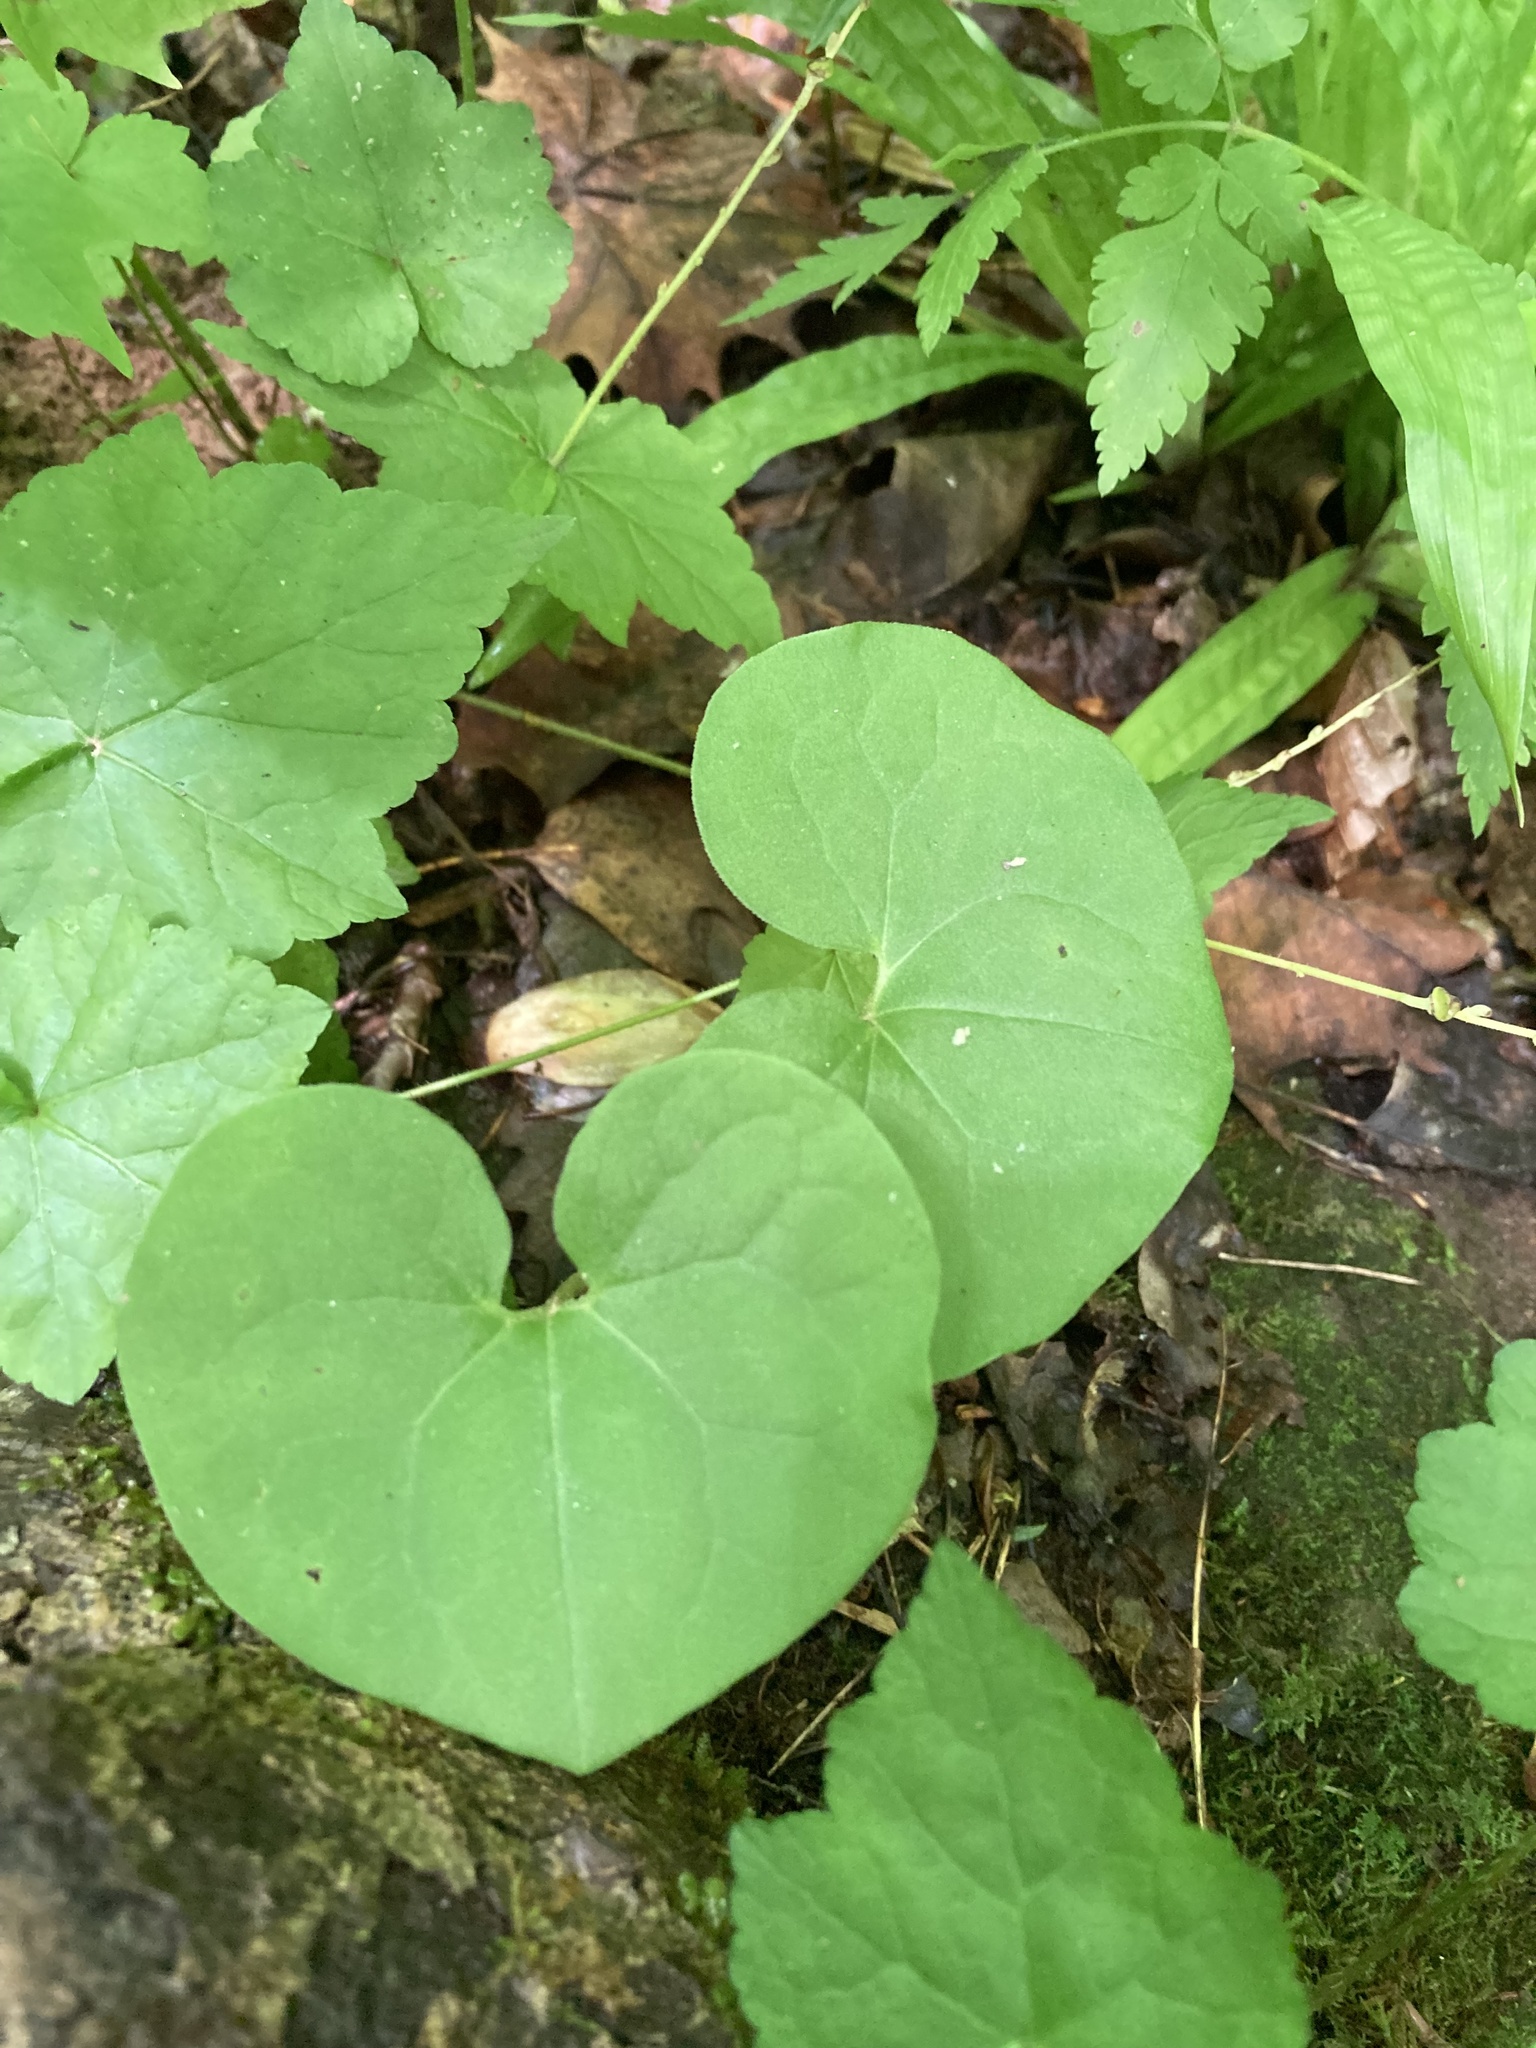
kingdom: Plantae
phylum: Tracheophyta
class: Magnoliopsida
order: Piperales
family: Aristolochiaceae
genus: Asarum
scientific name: Asarum canadense
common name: Wild ginger
